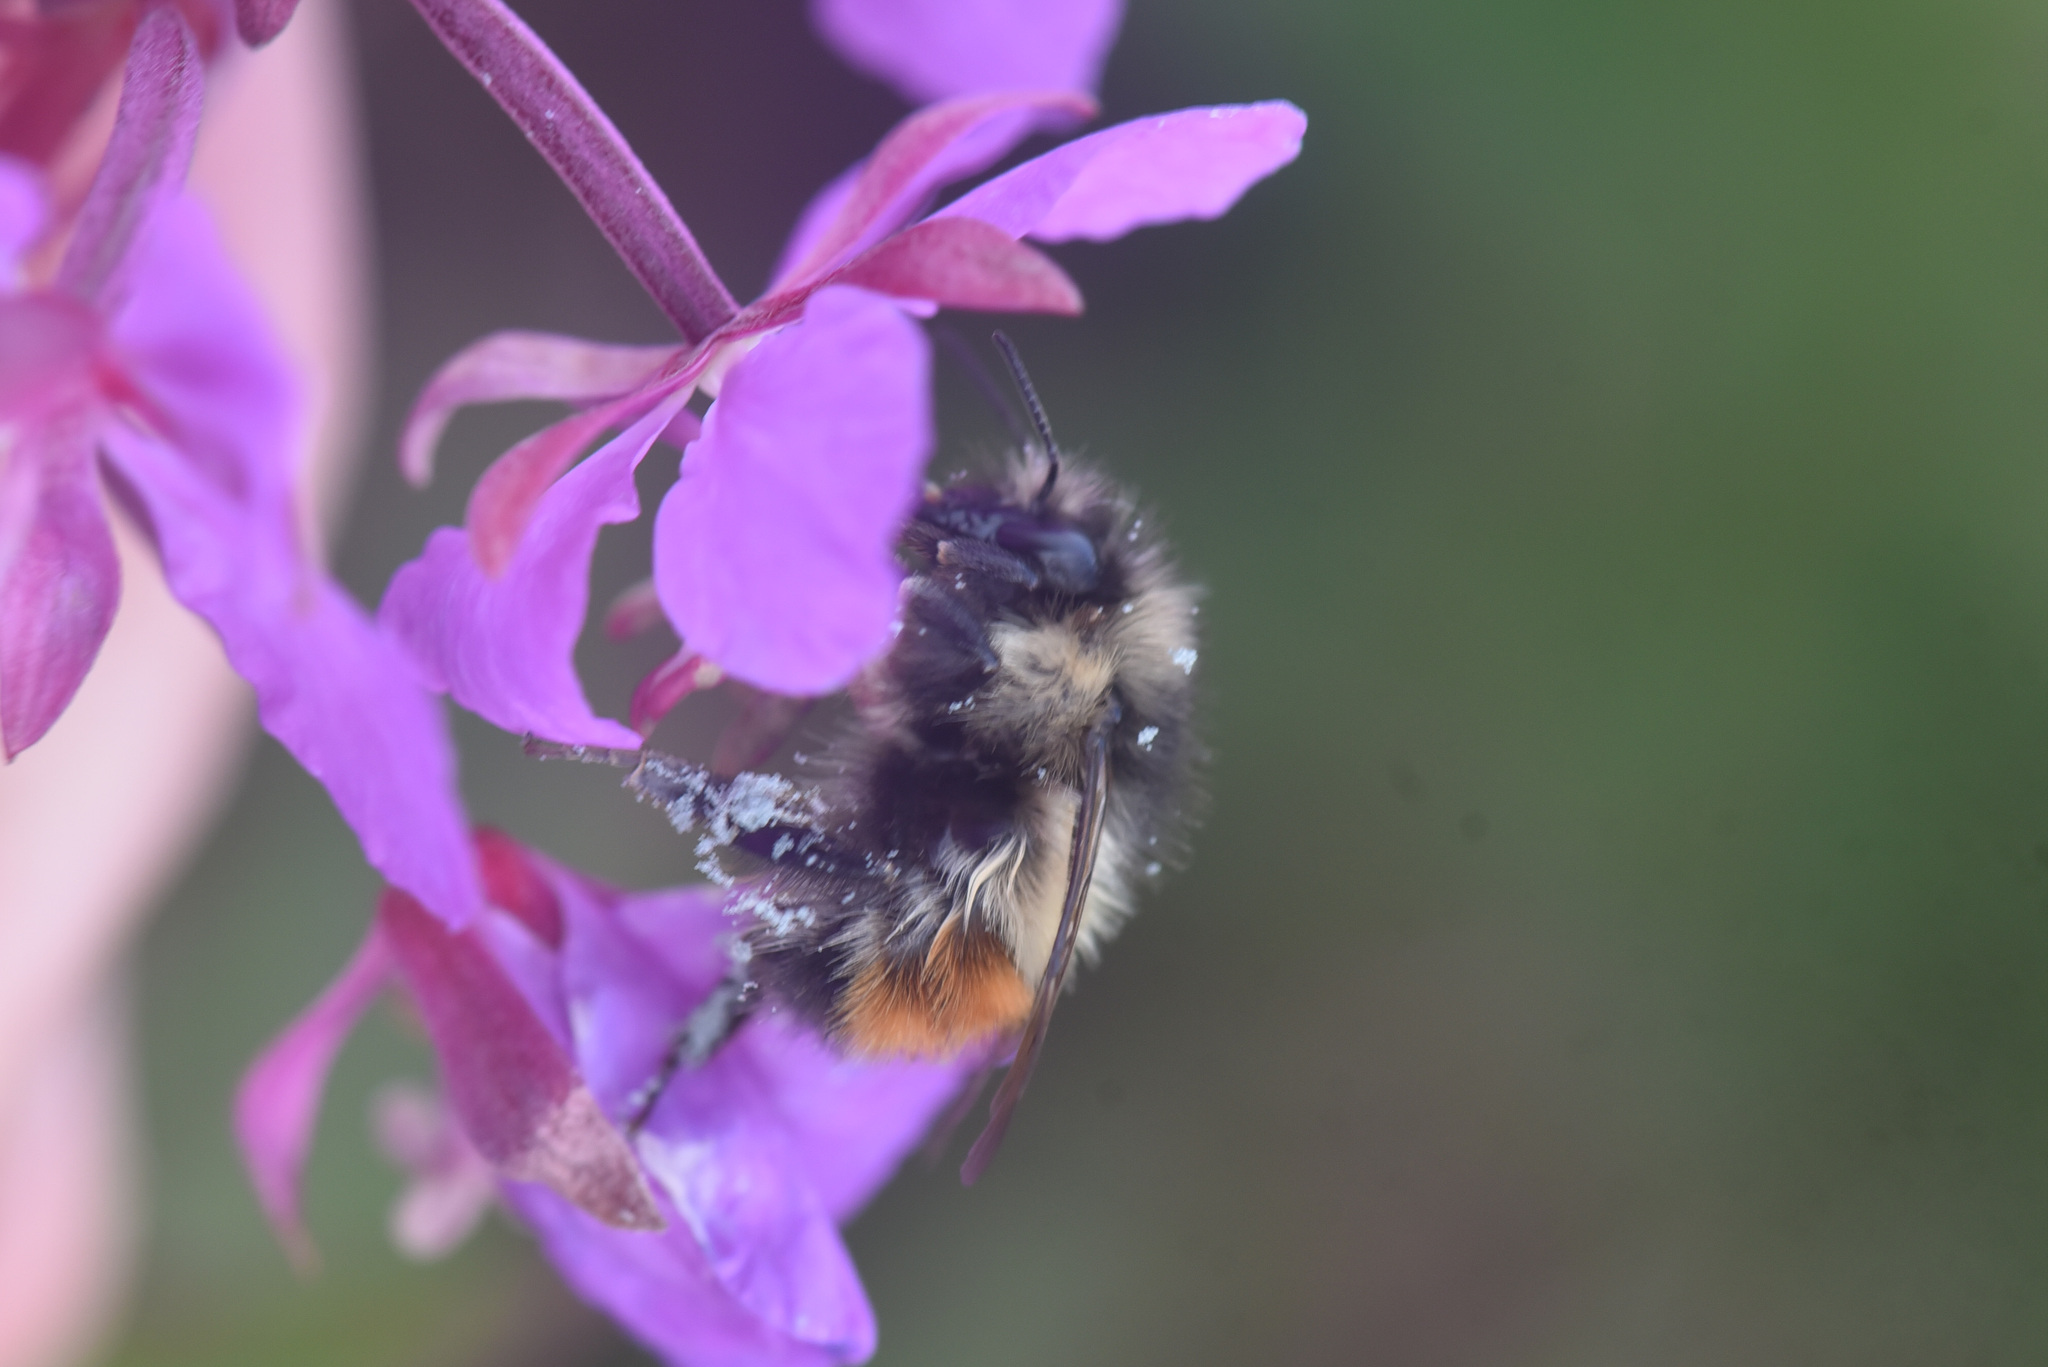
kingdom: Animalia
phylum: Arthropoda
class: Insecta
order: Hymenoptera
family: Apidae
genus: Bombus
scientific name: Bombus flavifrons
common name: Yellow head bumble bee
